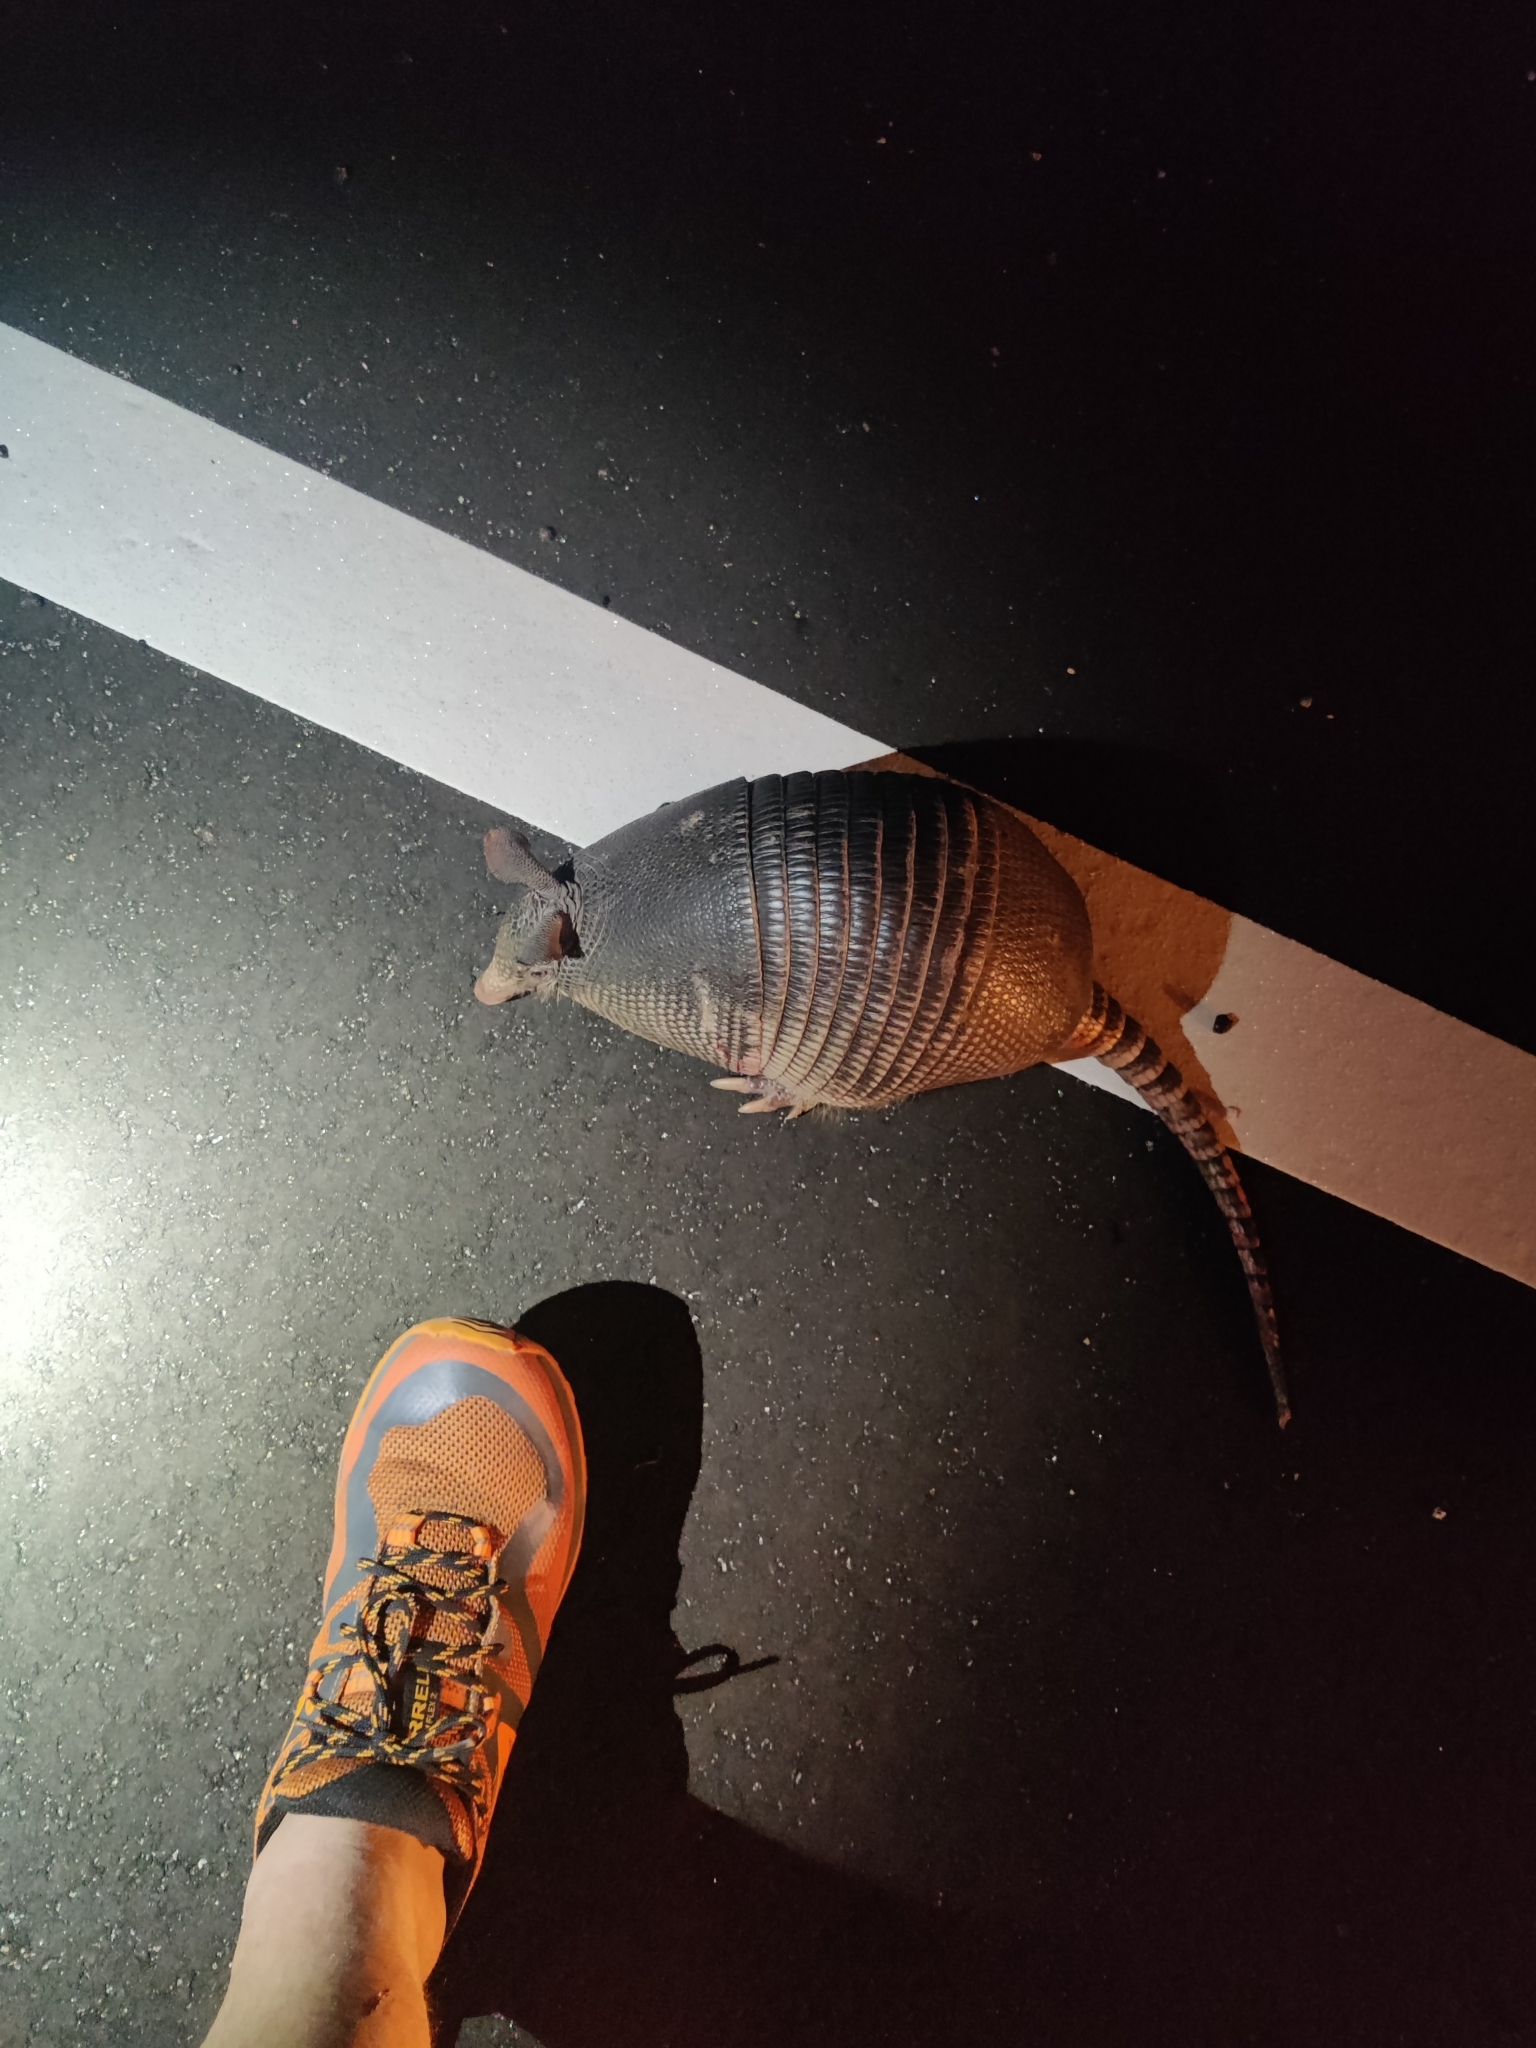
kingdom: Animalia
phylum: Chordata
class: Mammalia
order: Cingulata
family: Dasypodidae
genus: Dasypus
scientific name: Dasypus novemcinctus
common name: Nine-banded armadillo
